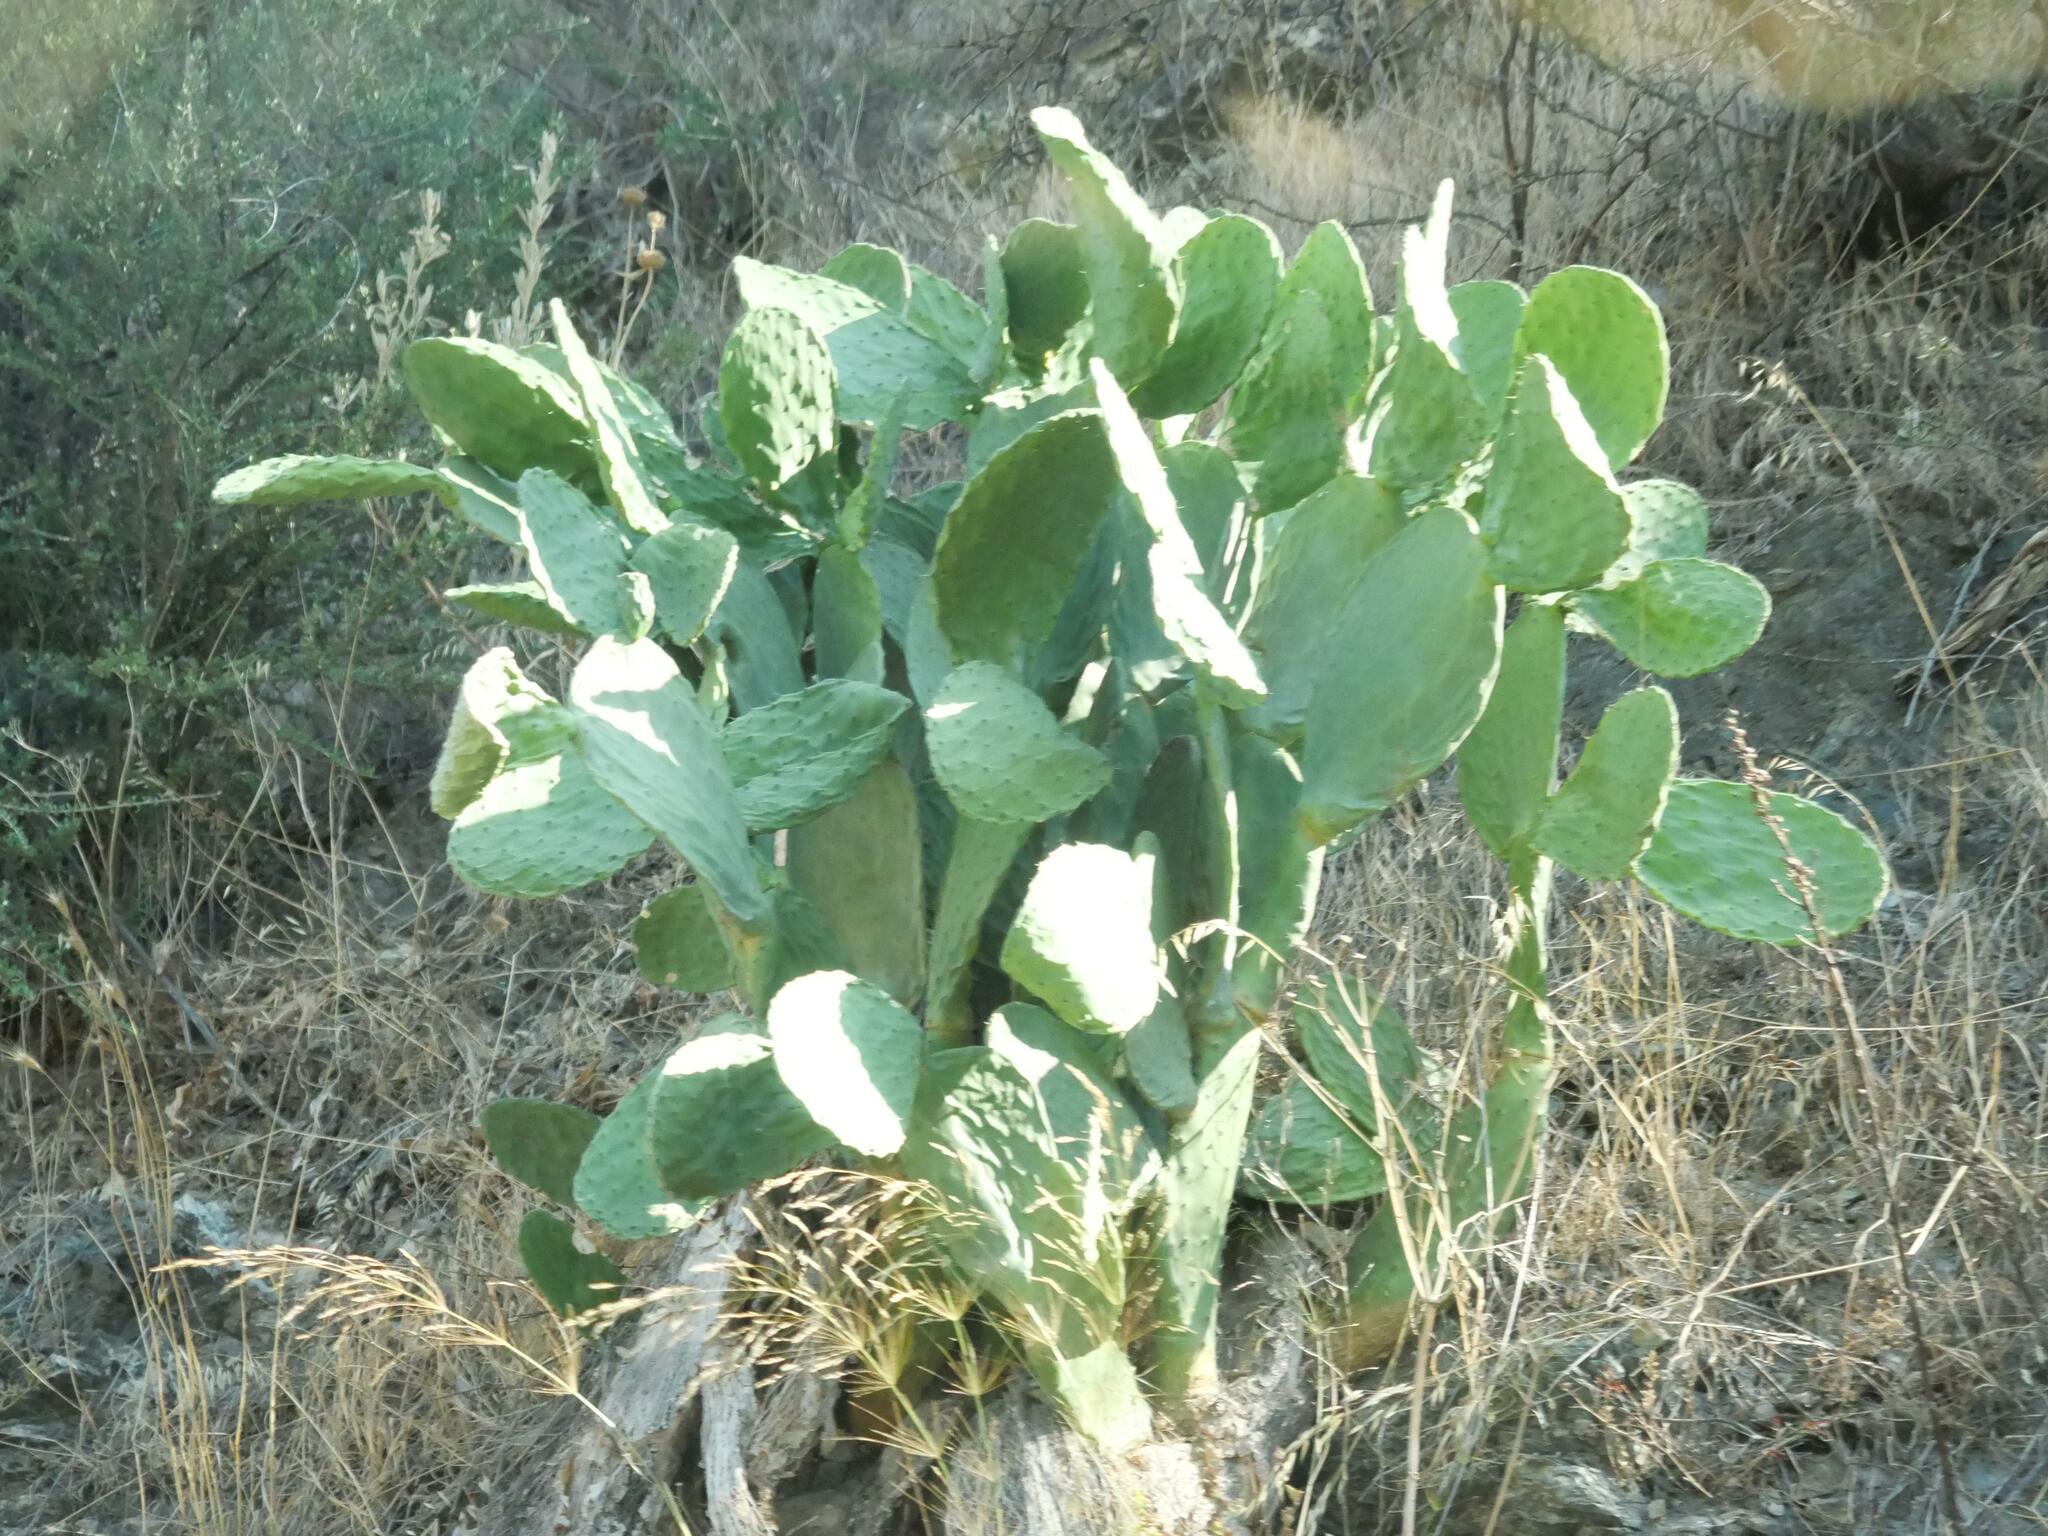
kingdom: Plantae
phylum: Tracheophyta
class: Magnoliopsida
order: Caryophyllales
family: Cactaceae
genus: Opuntia
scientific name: Opuntia ficus-indica
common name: Barbary fig
